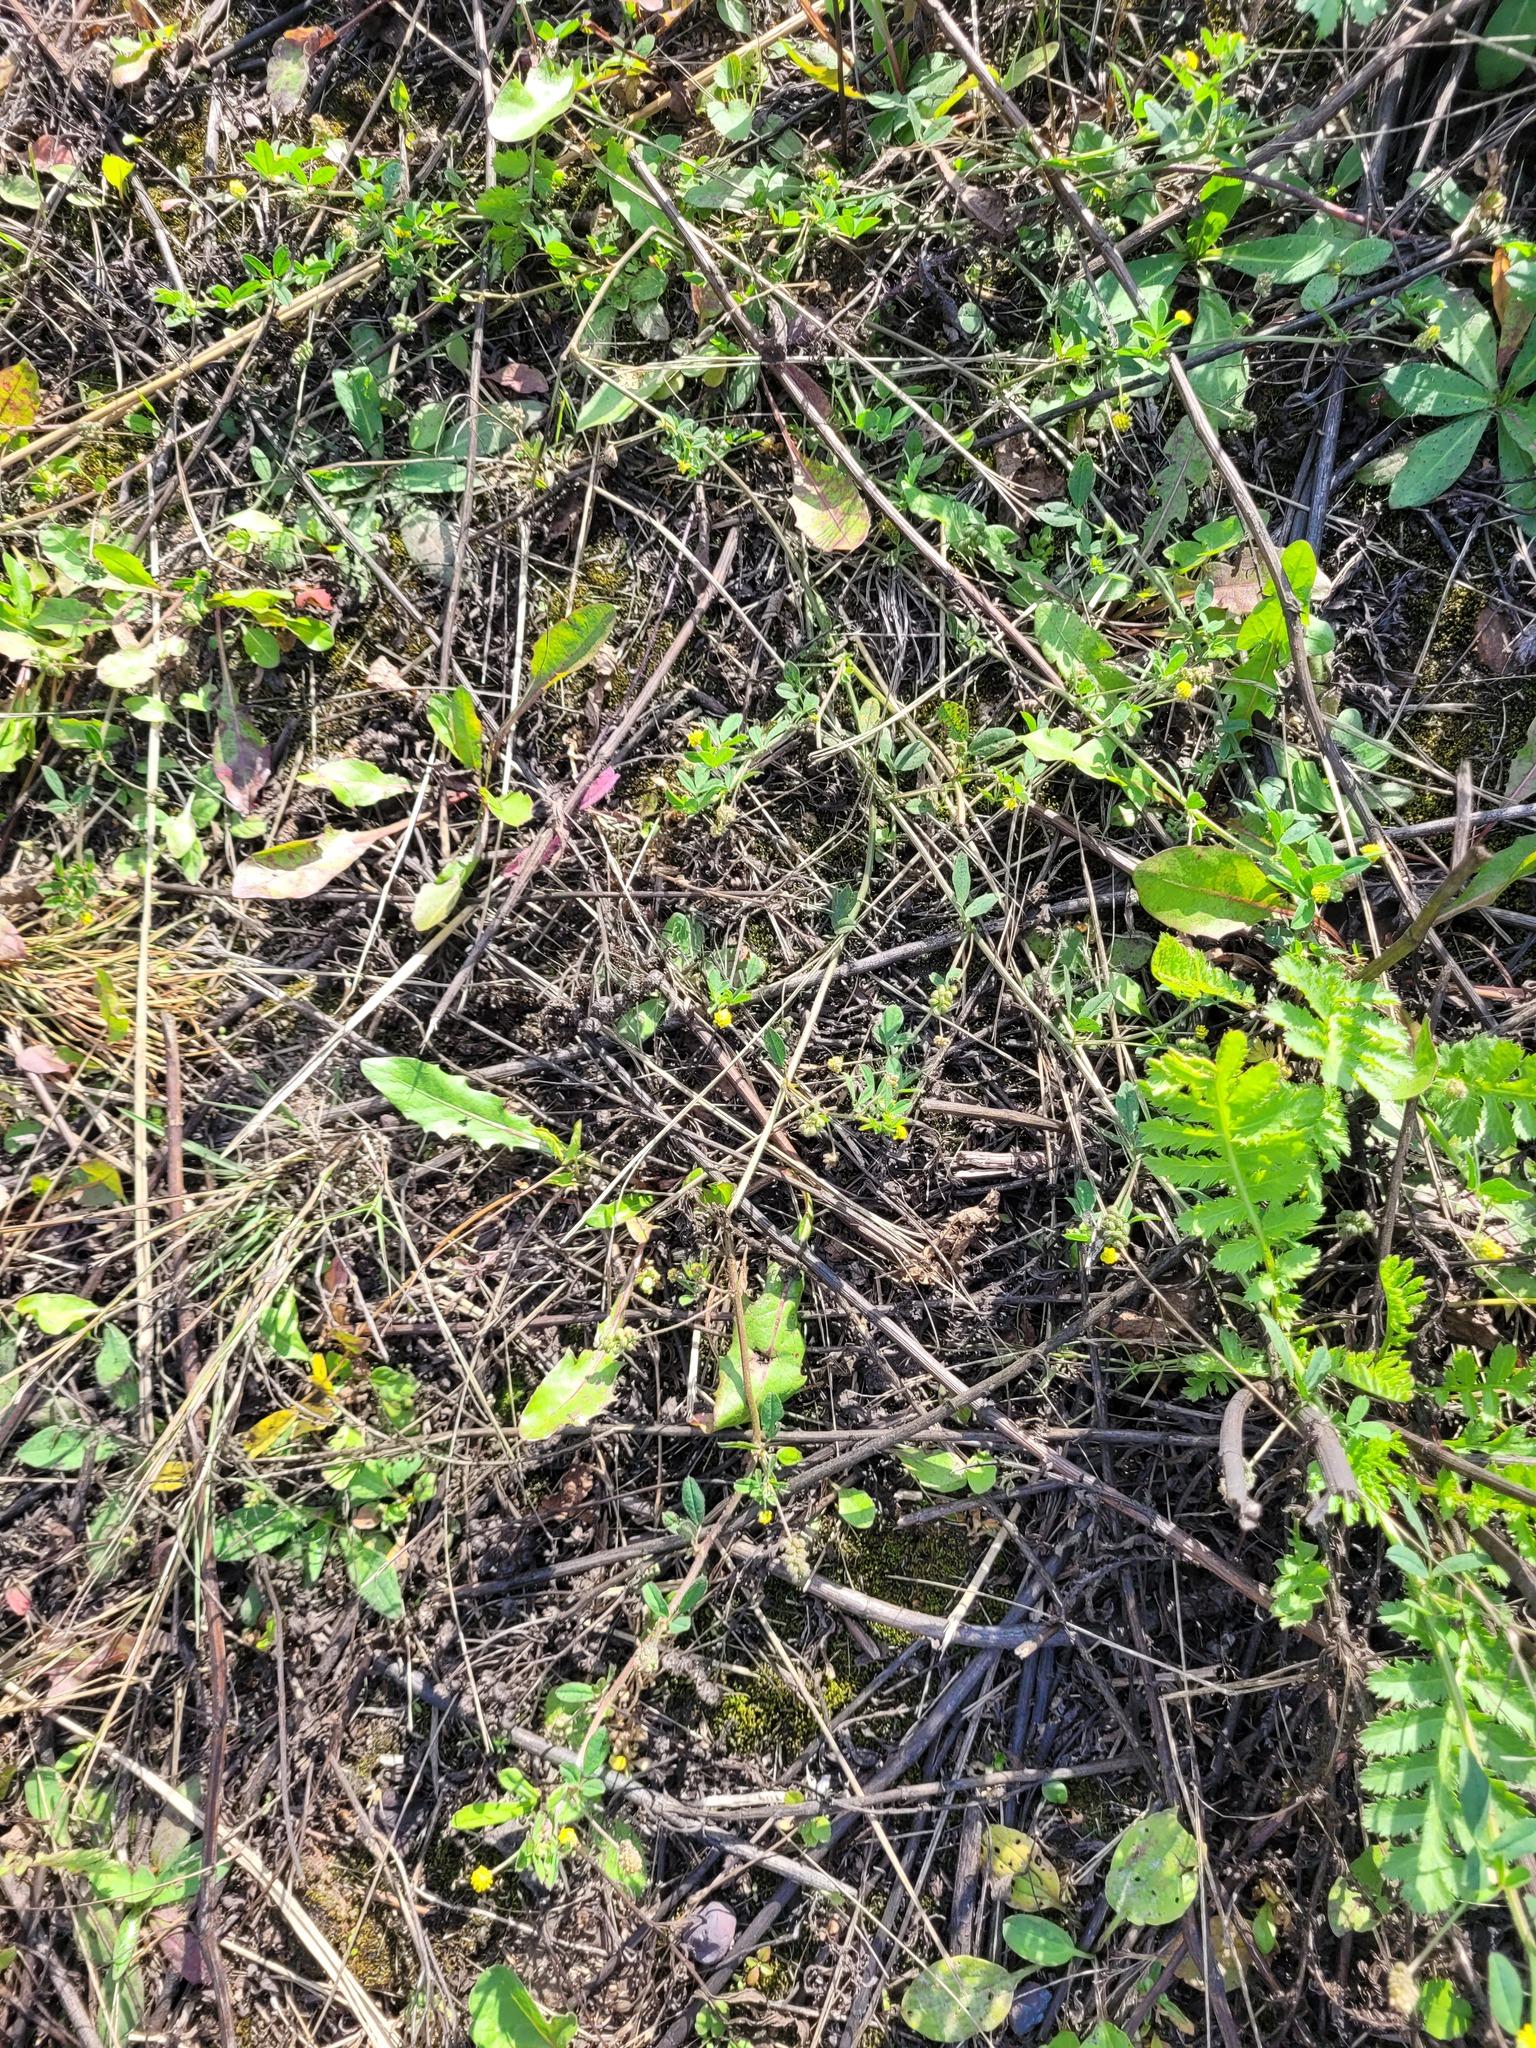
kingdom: Plantae
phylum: Tracheophyta
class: Magnoliopsida
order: Fabales
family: Fabaceae
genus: Medicago
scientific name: Medicago lupulina
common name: Black medick
